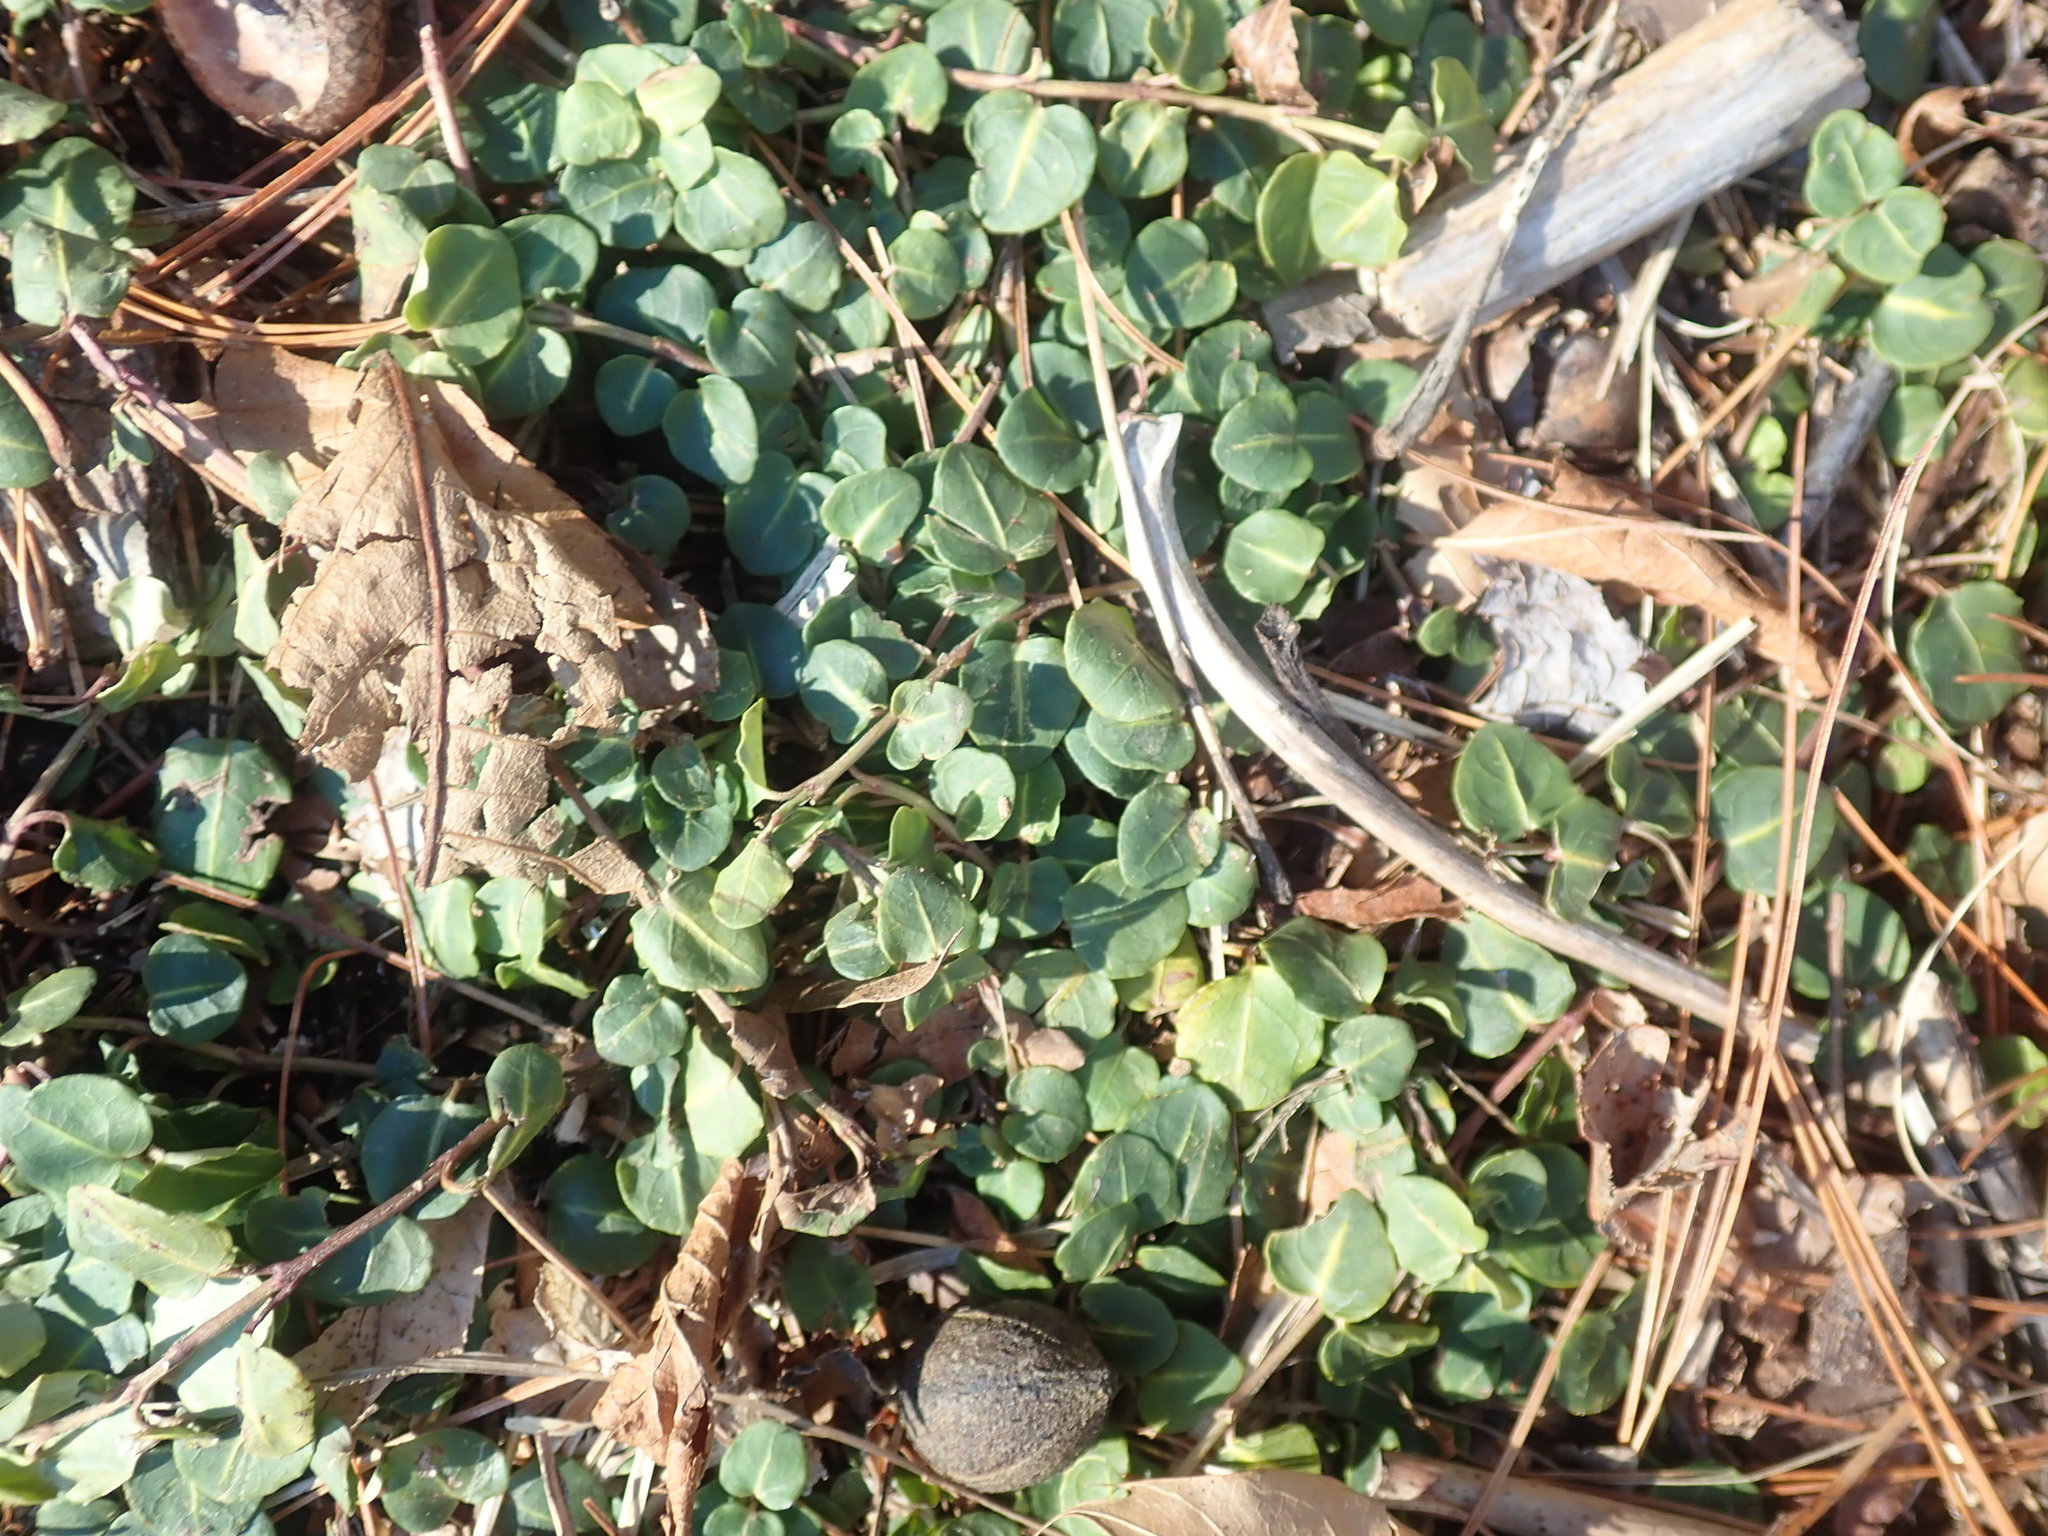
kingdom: Plantae
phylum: Tracheophyta
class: Magnoliopsida
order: Gentianales
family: Rubiaceae
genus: Mitchella
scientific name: Mitchella repens
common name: Partridge-berry
